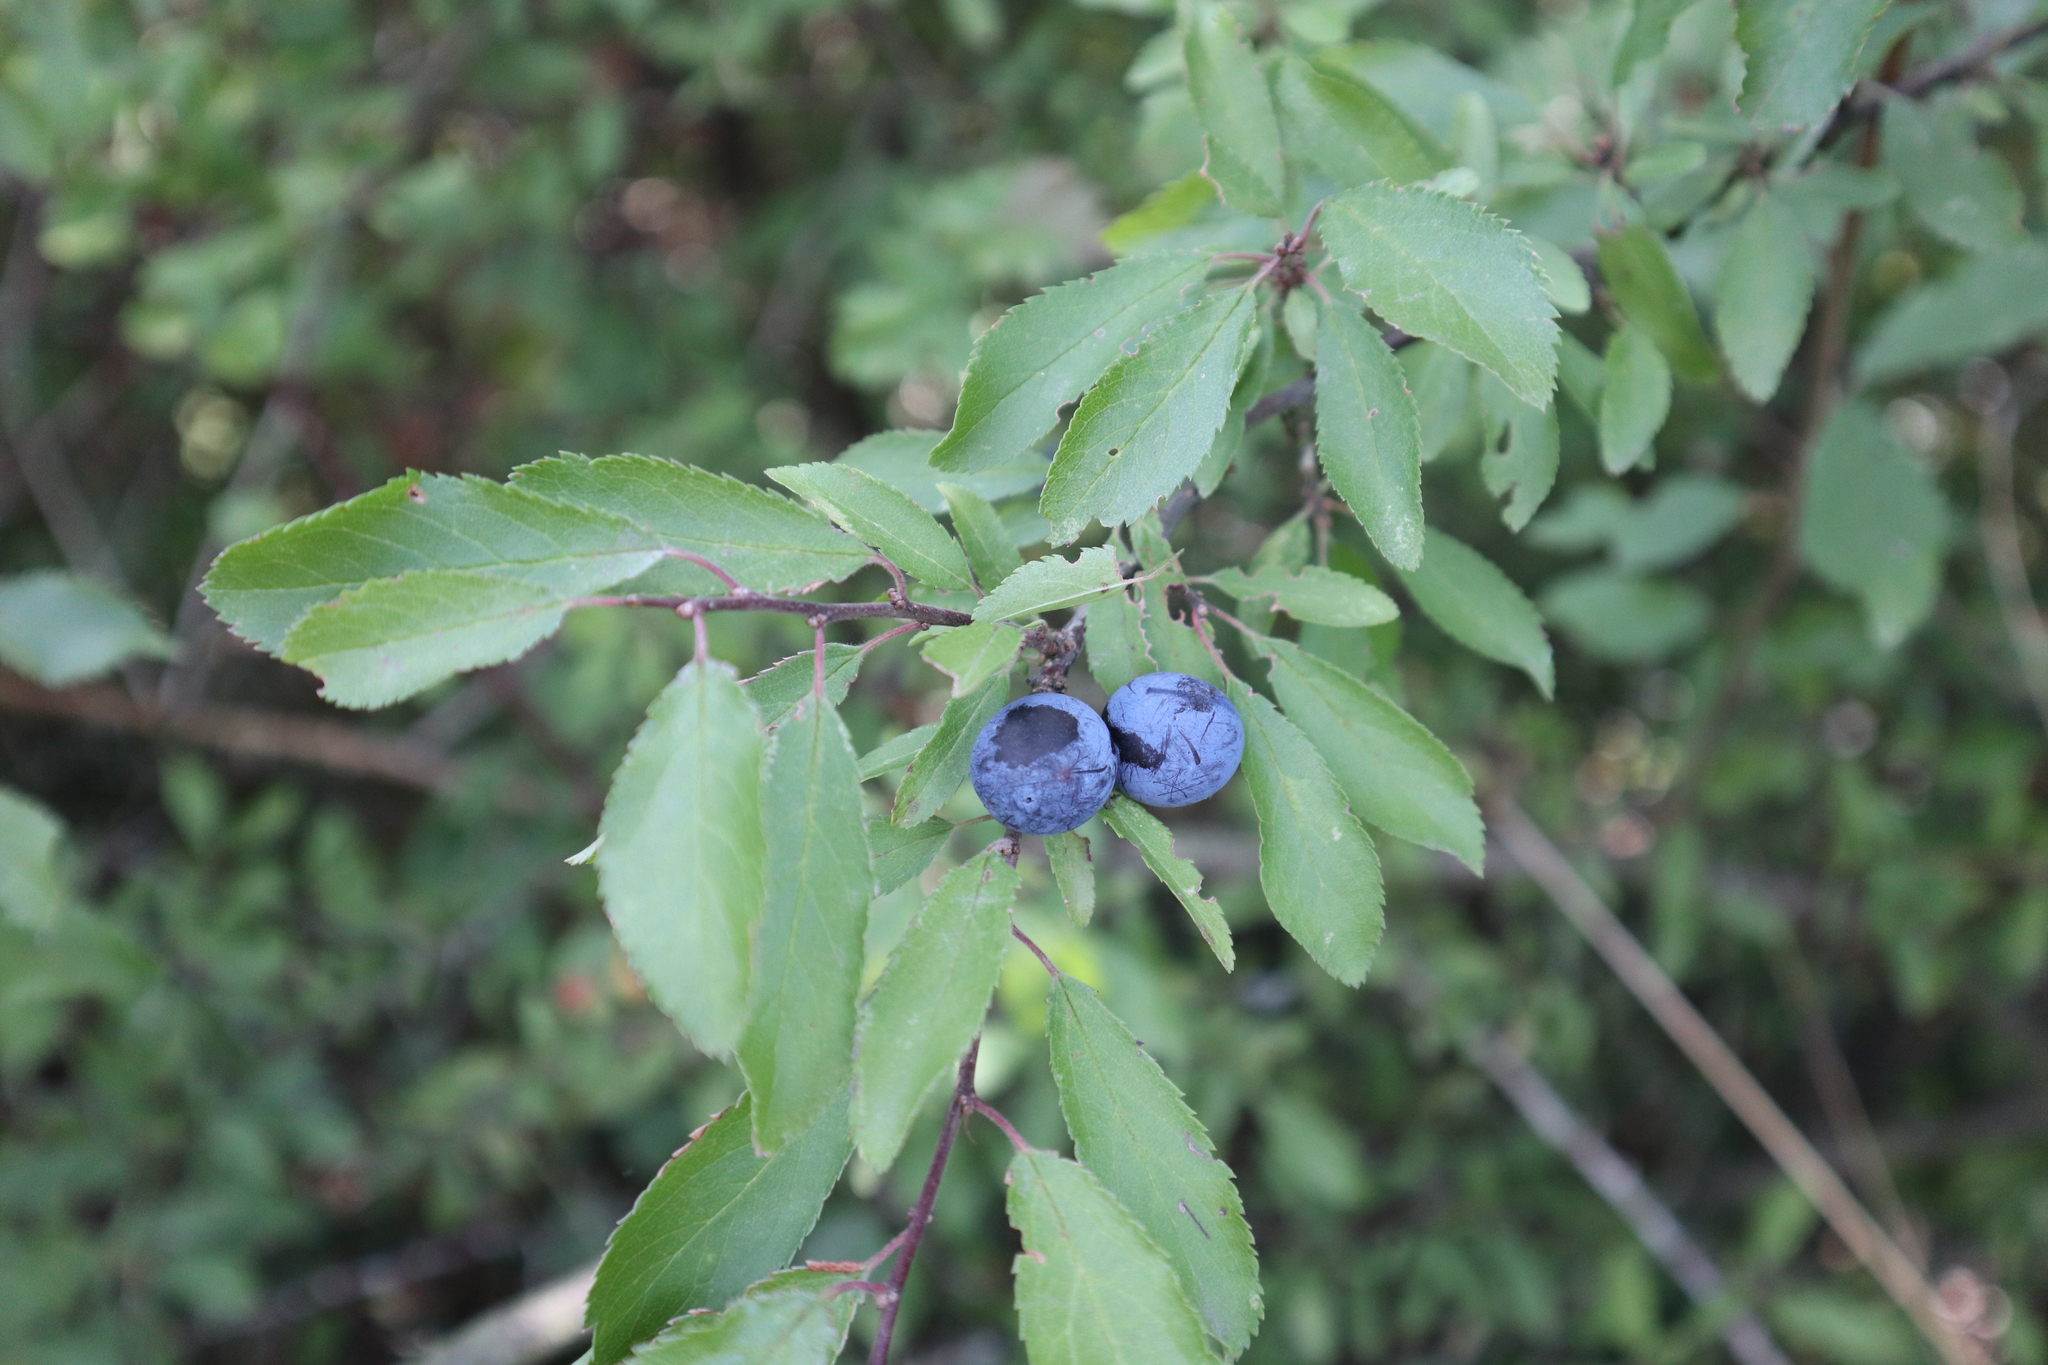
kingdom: Plantae
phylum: Tracheophyta
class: Magnoliopsida
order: Rosales
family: Rosaceae
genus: Prunus
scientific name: Prunus spinosa
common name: Blackthorn
